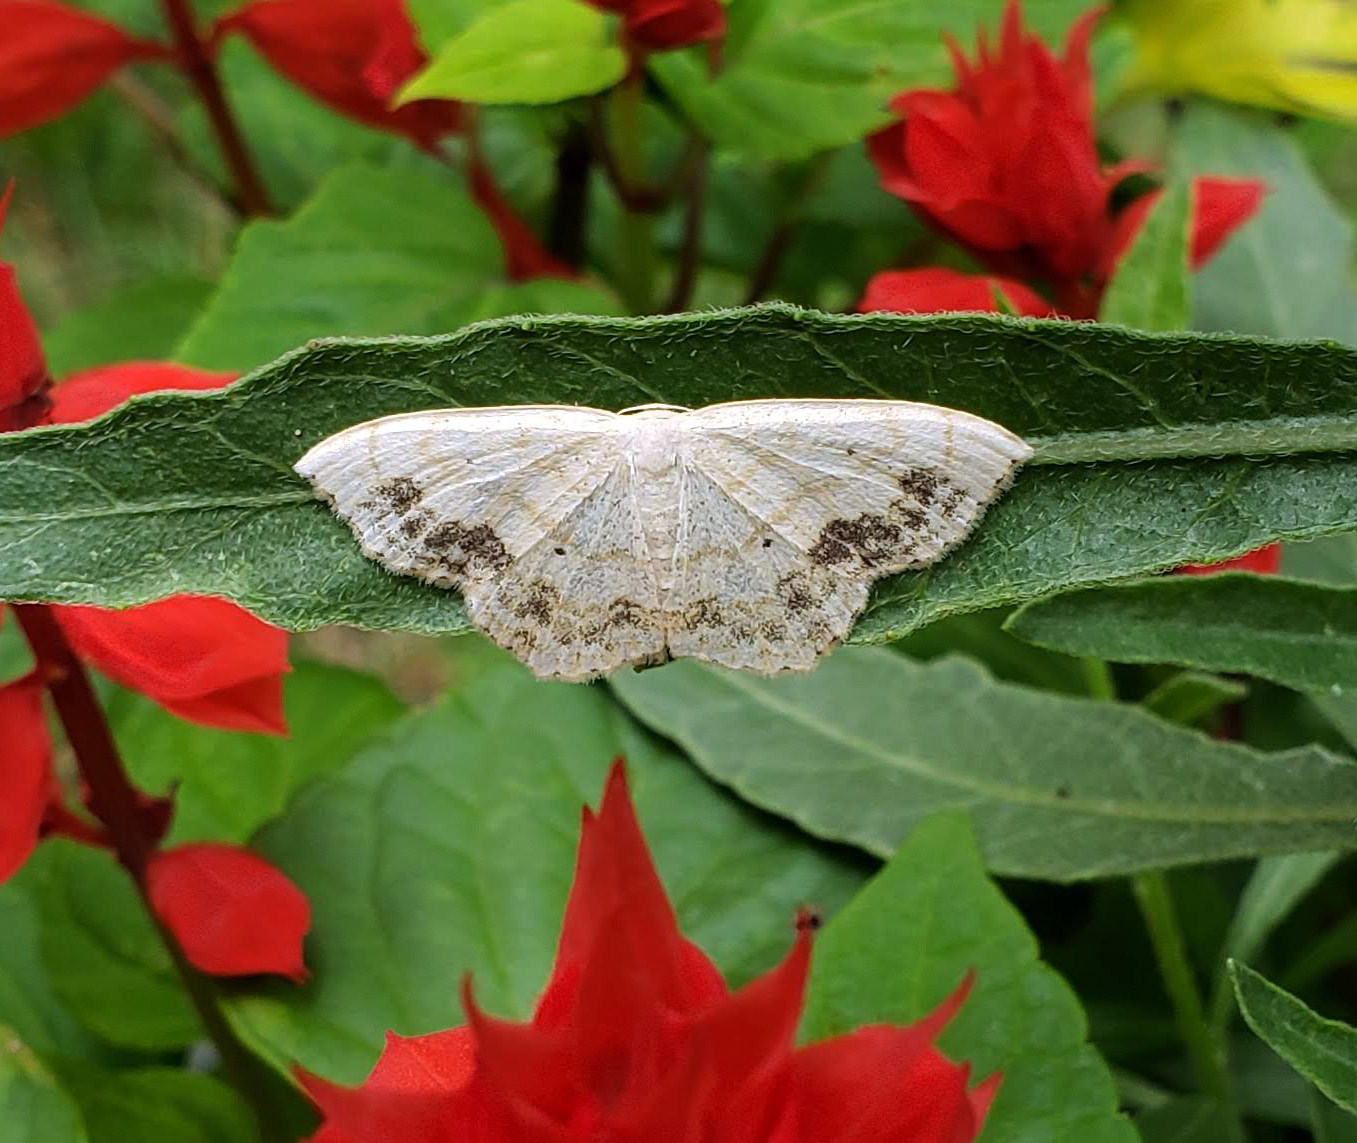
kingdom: Animalia
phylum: Arthropoda
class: Insecta
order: Lepidoptera
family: Geometridae
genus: Scopula
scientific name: Scopula limboundata
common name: Large lace border
